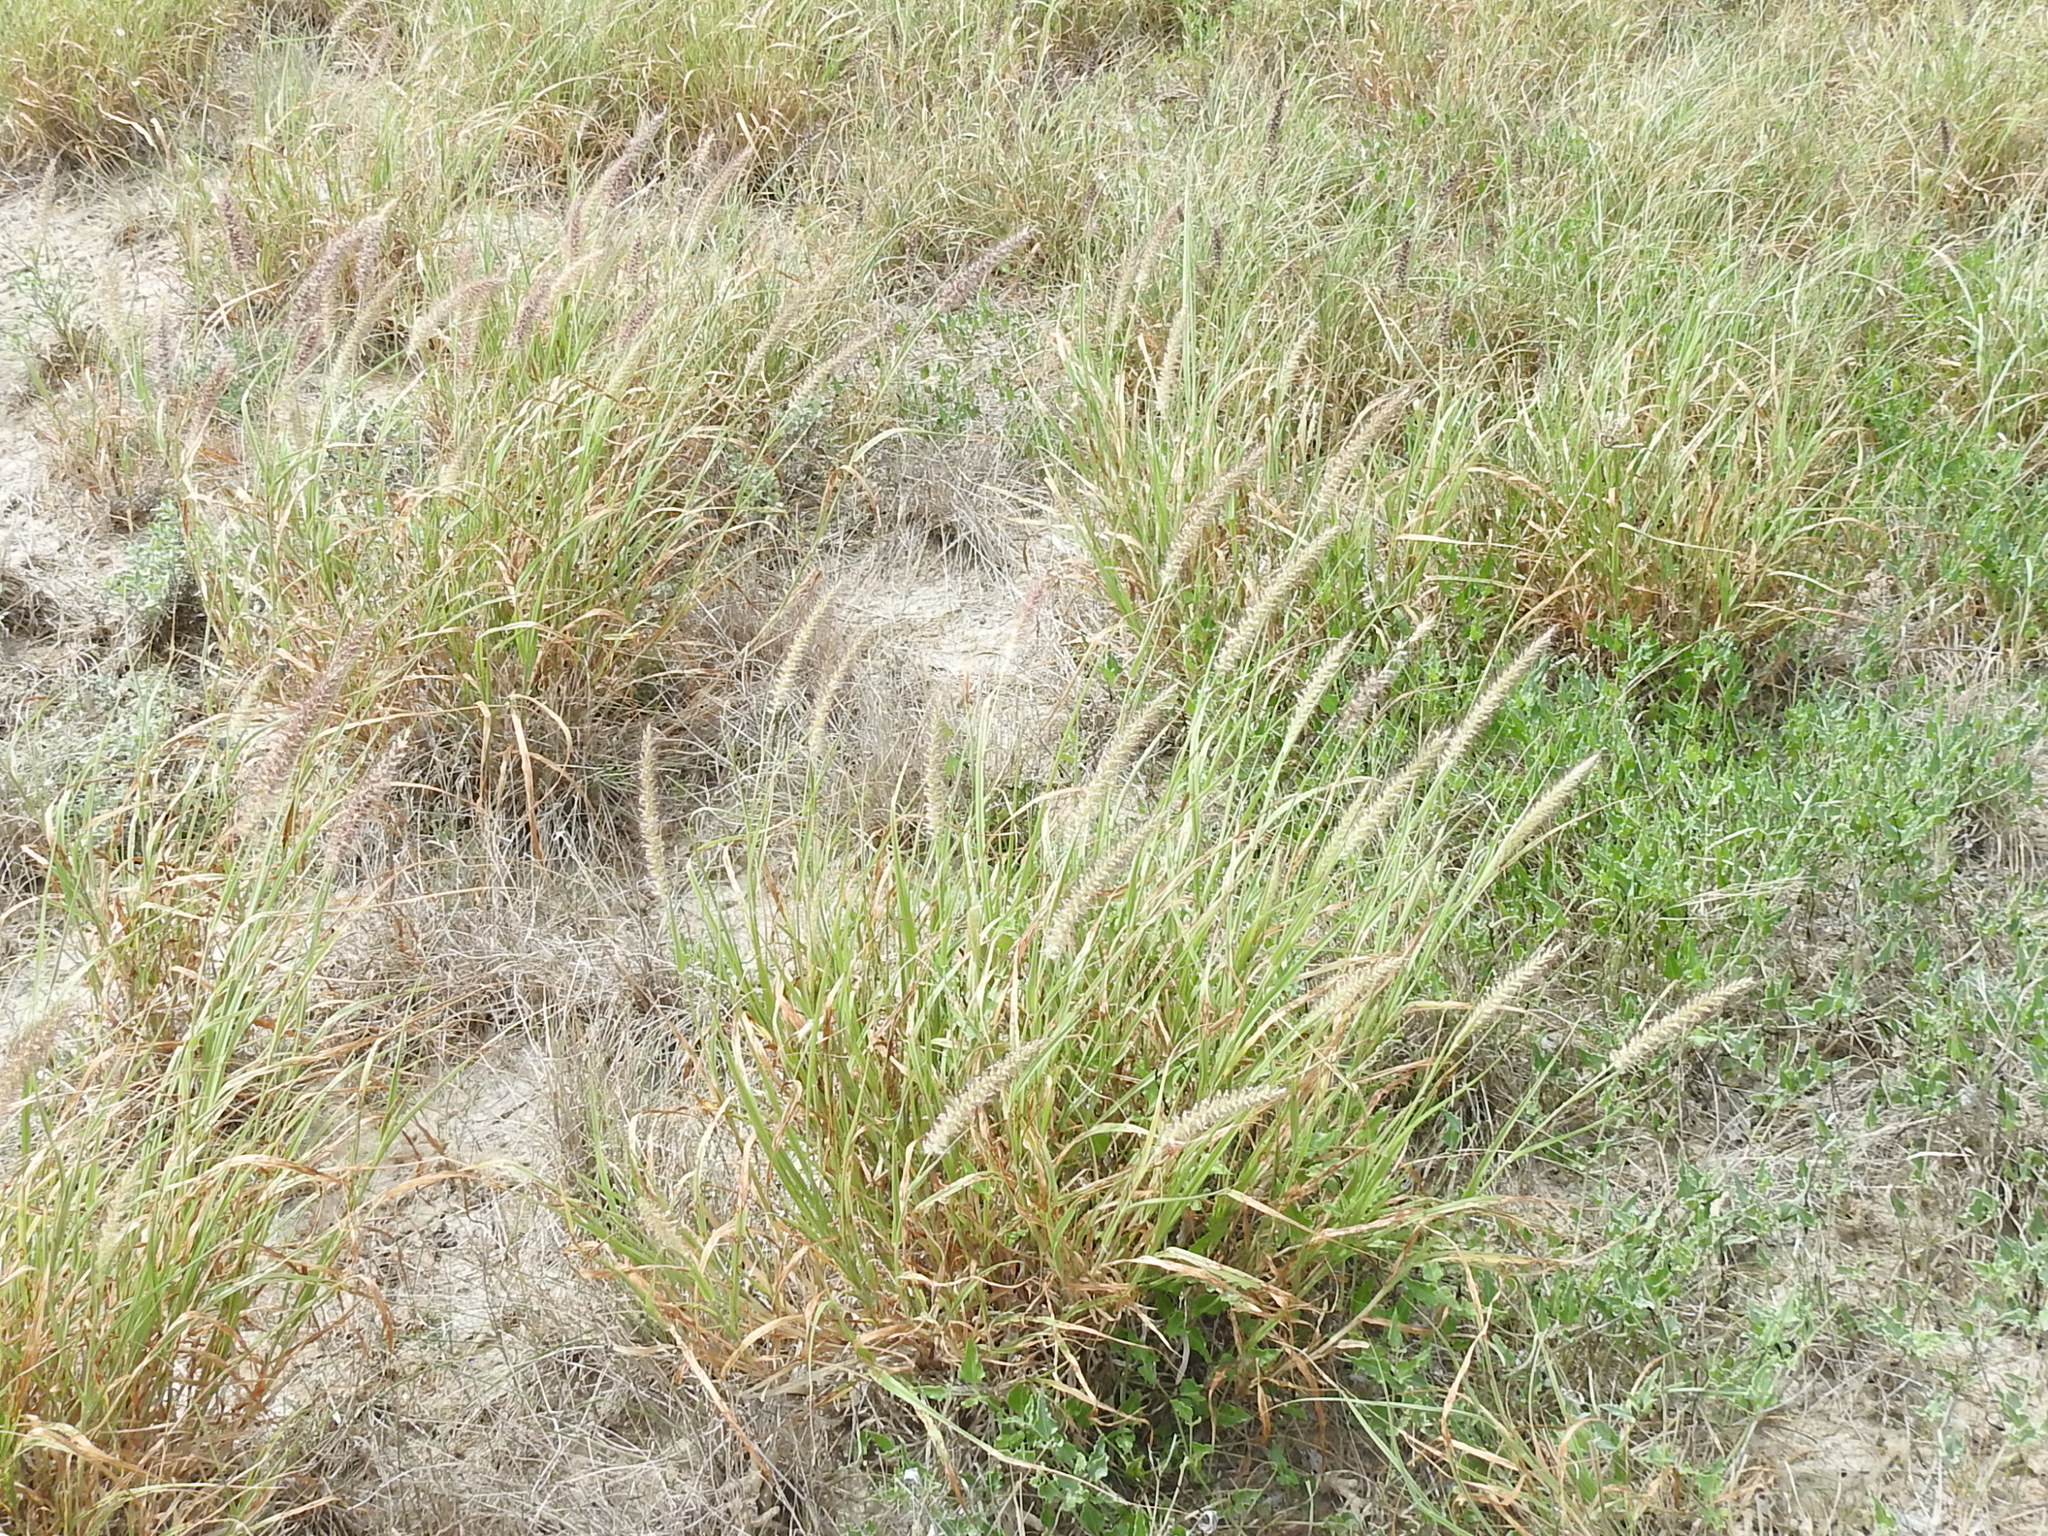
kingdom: Plantae
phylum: Tracheophyta
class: Liliopsida
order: Poales
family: Poaceae
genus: Cenchrus
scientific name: Cenchrus ciliaris
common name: Buffelgrass
